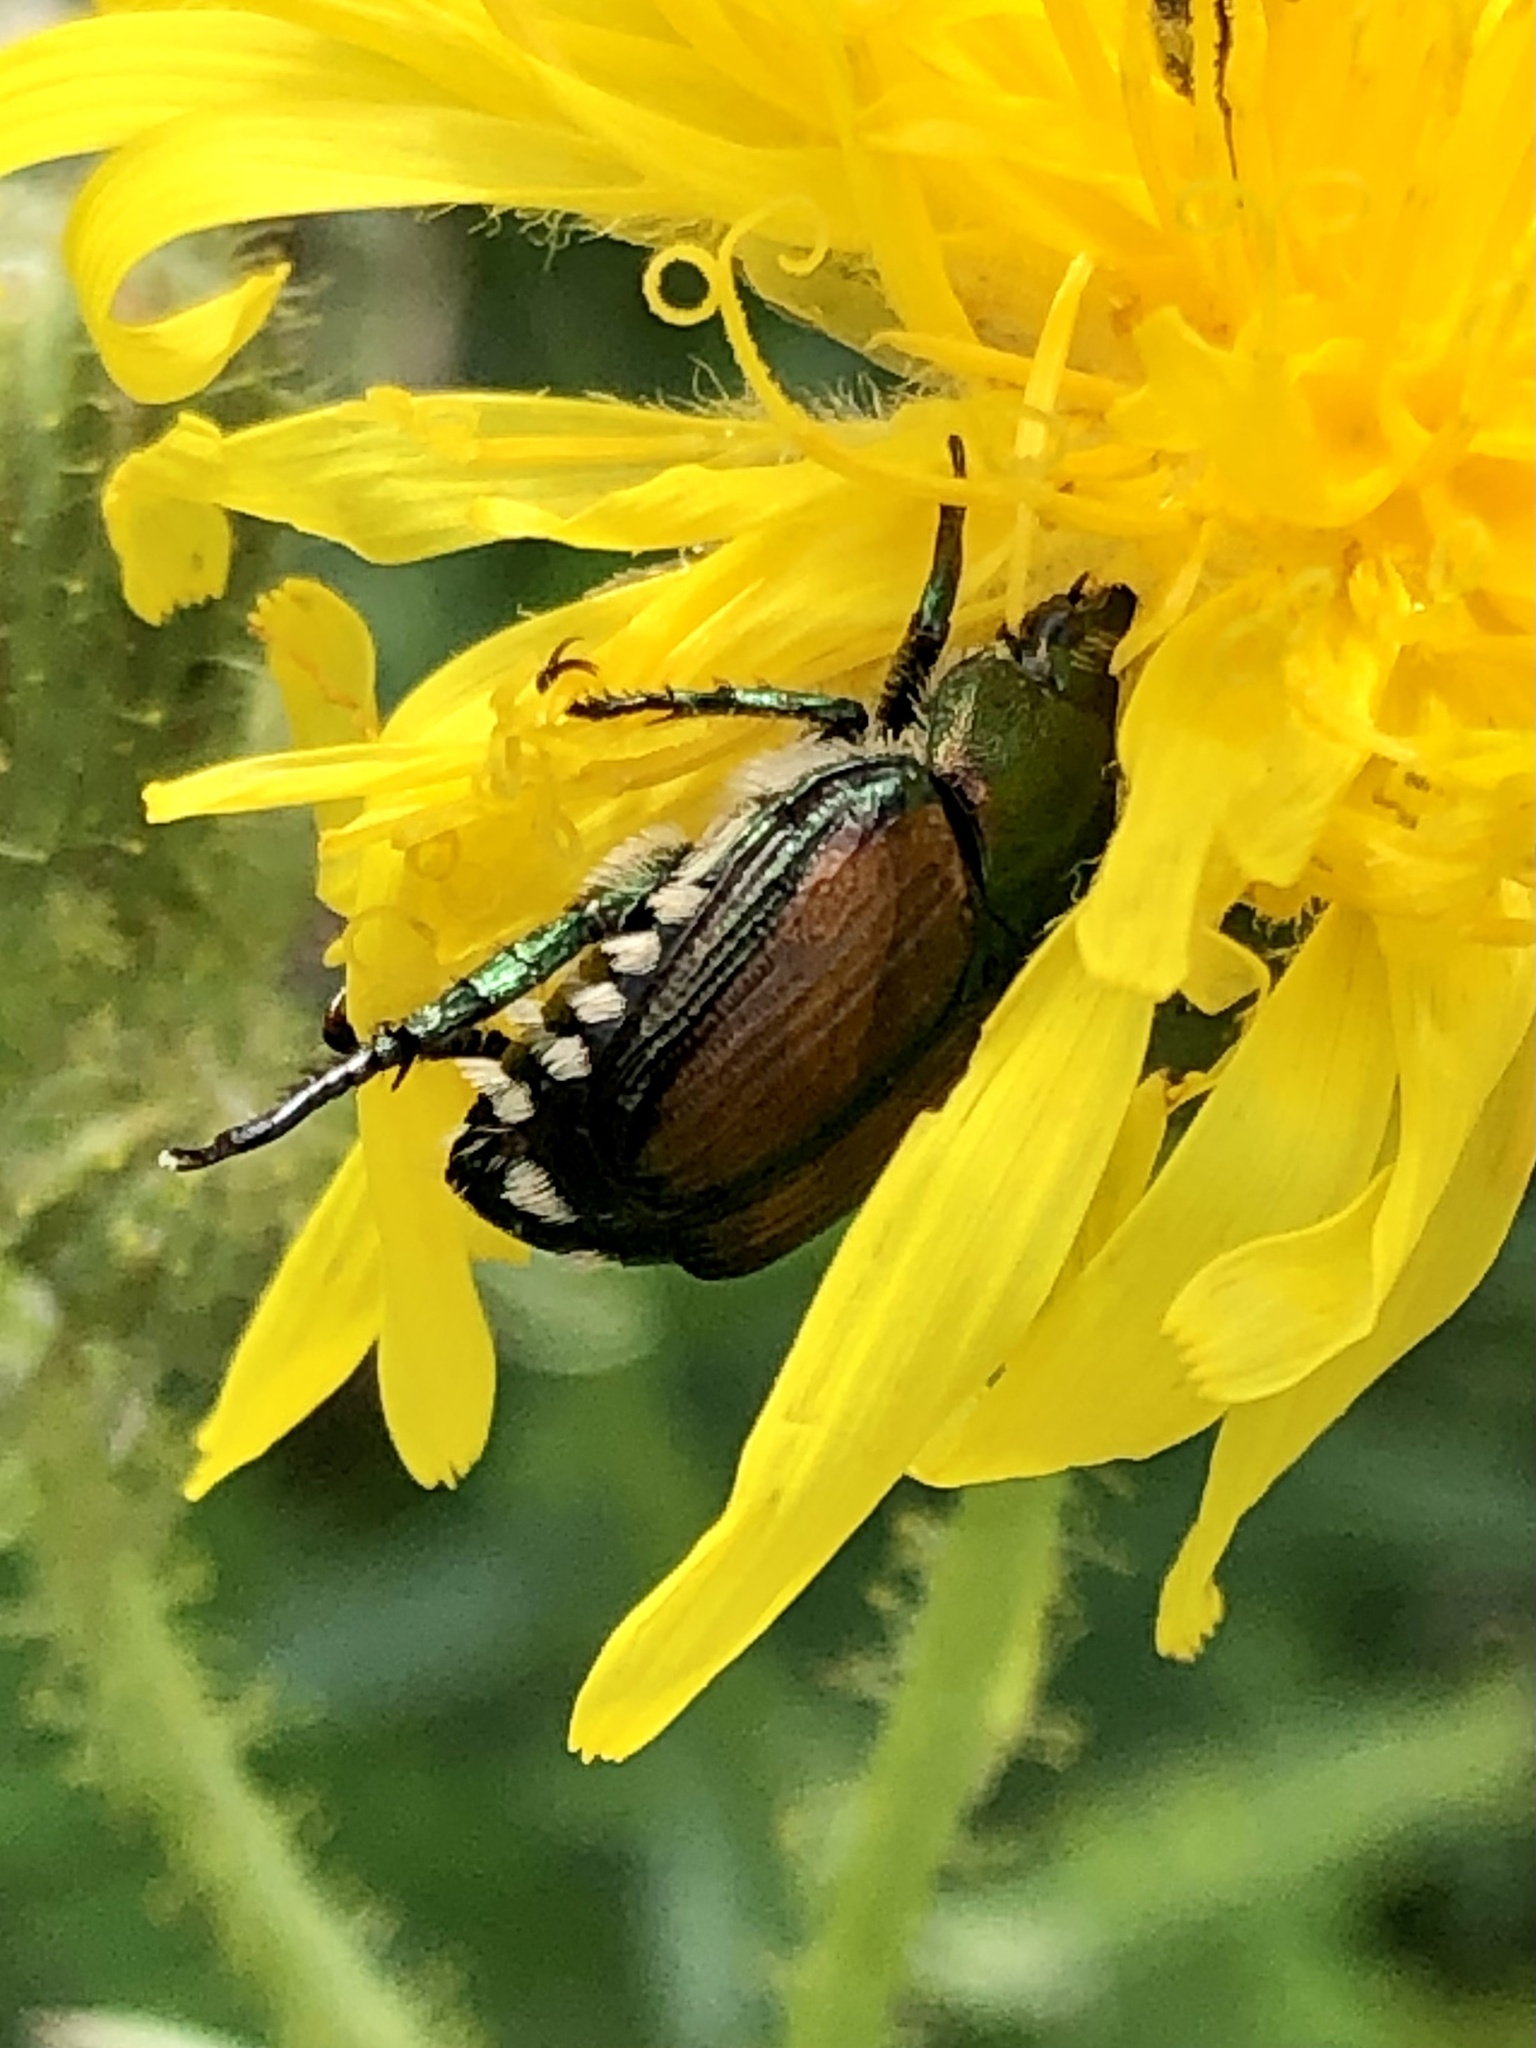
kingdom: Animalia
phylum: Arthropoda
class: Insecta
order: Coleoptera
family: Scarabaeidae
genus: Popillia
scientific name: Popillia japonica
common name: Japanese beetle
